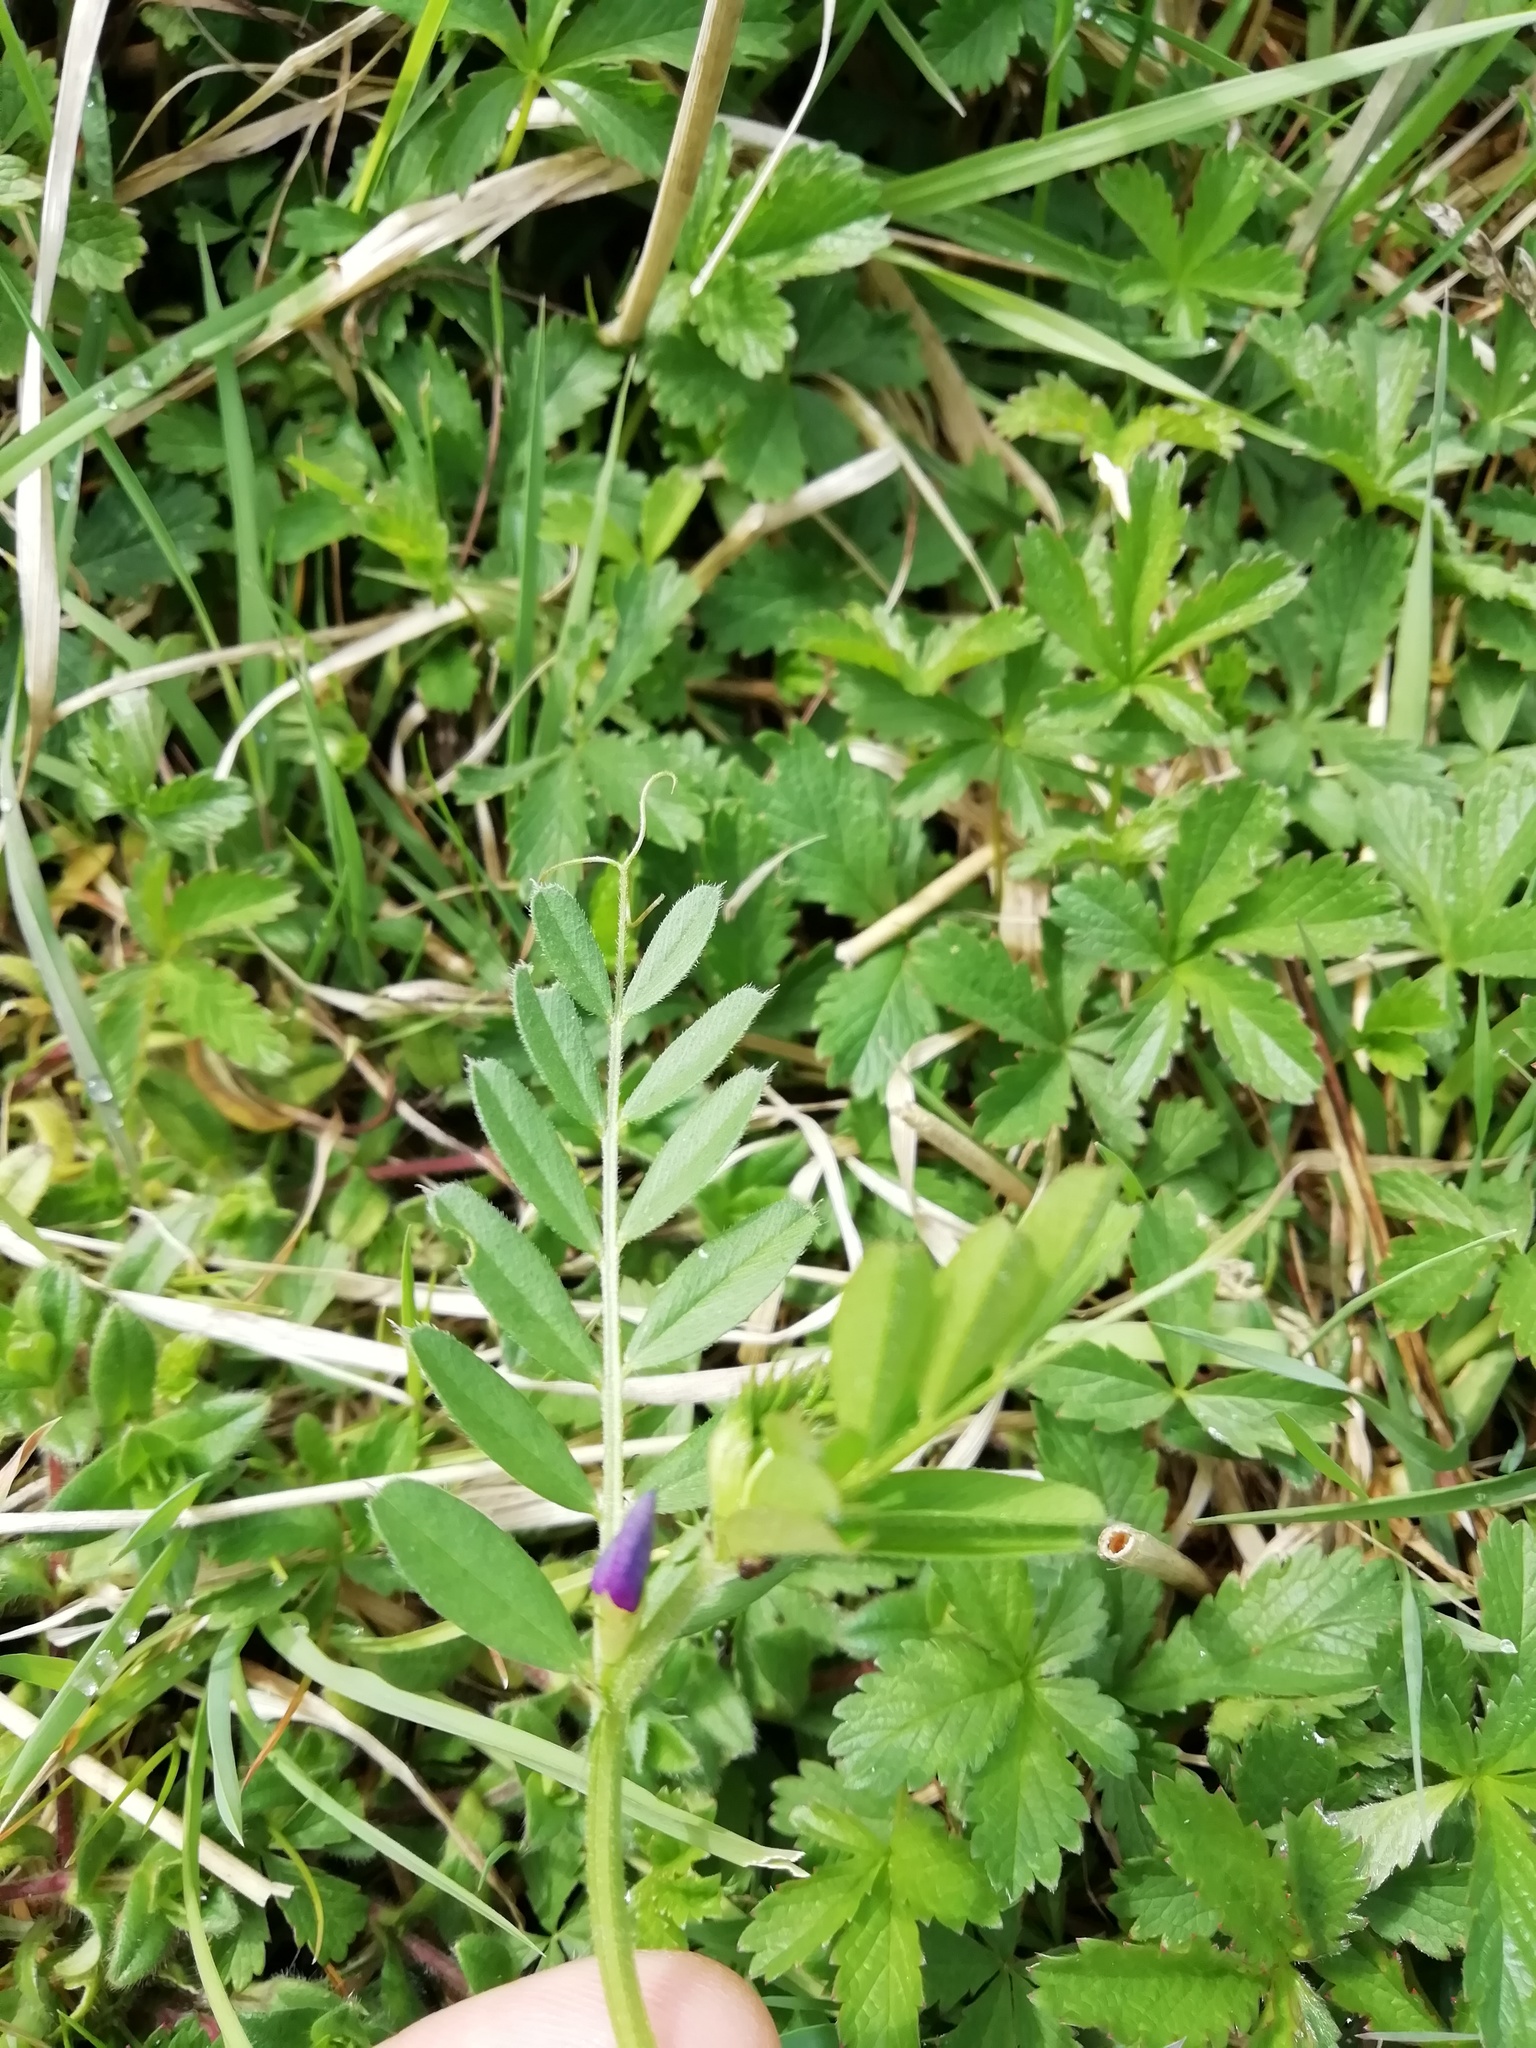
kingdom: Plantae
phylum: Tracheophyta
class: Magnoliopsida
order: Fabales
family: Fabaceae
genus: Vicia
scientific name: Vicia sativa
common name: Garden vetch
